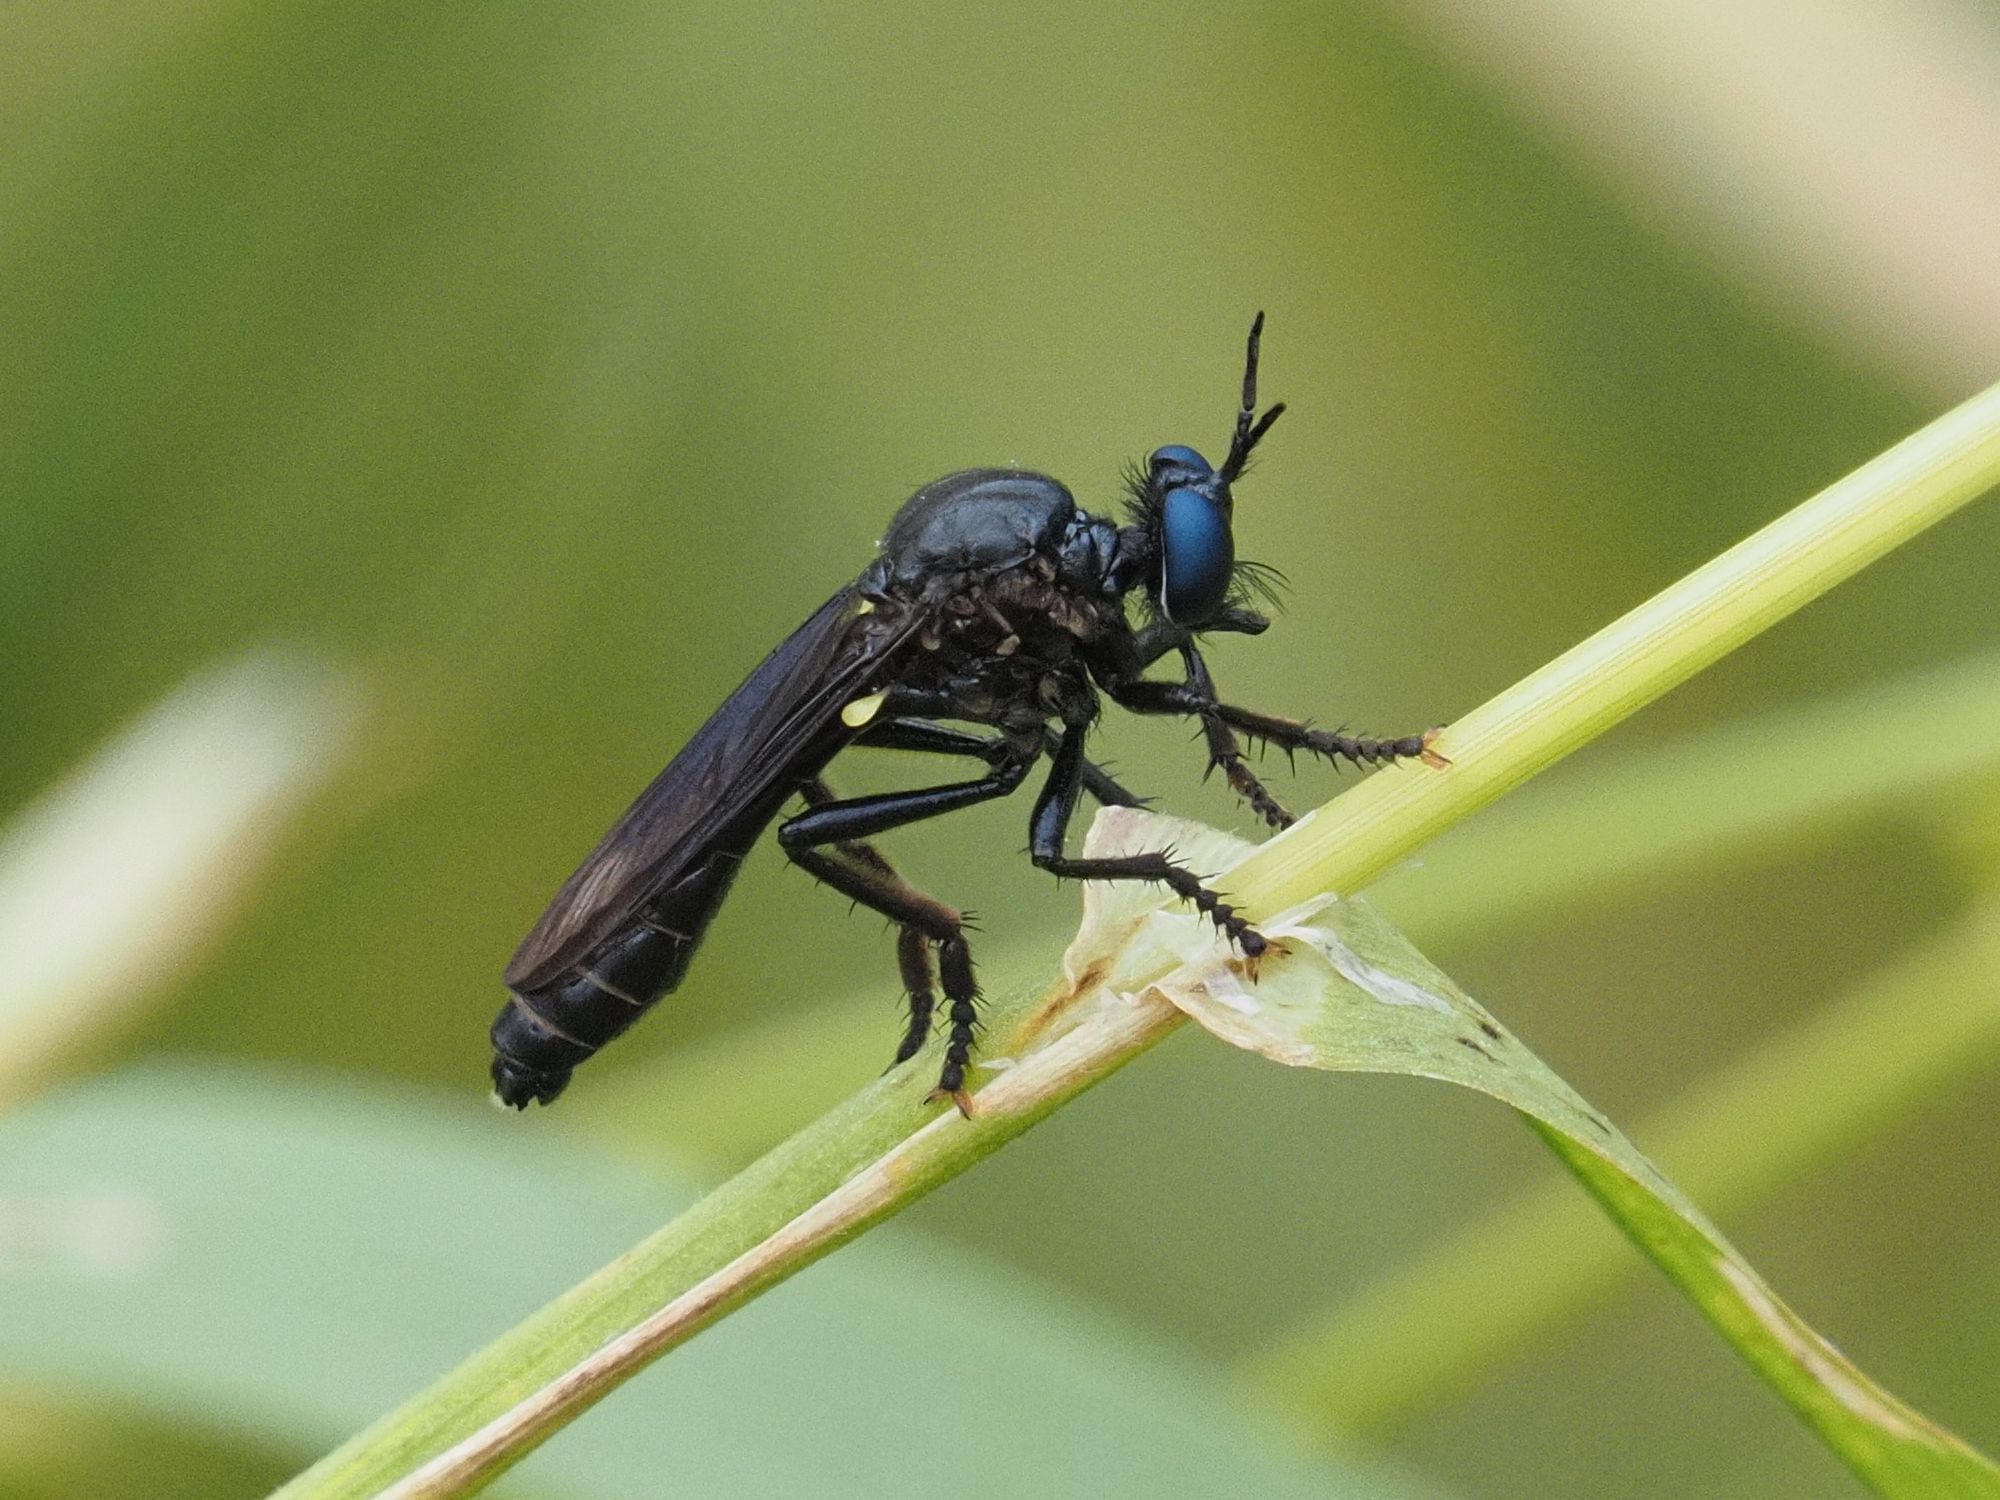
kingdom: Animalia
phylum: Arthropoda
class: Insecta
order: Diptera
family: Asilidae
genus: Dioctria
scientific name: Dioctria atricapilla
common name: Violet black-legged
